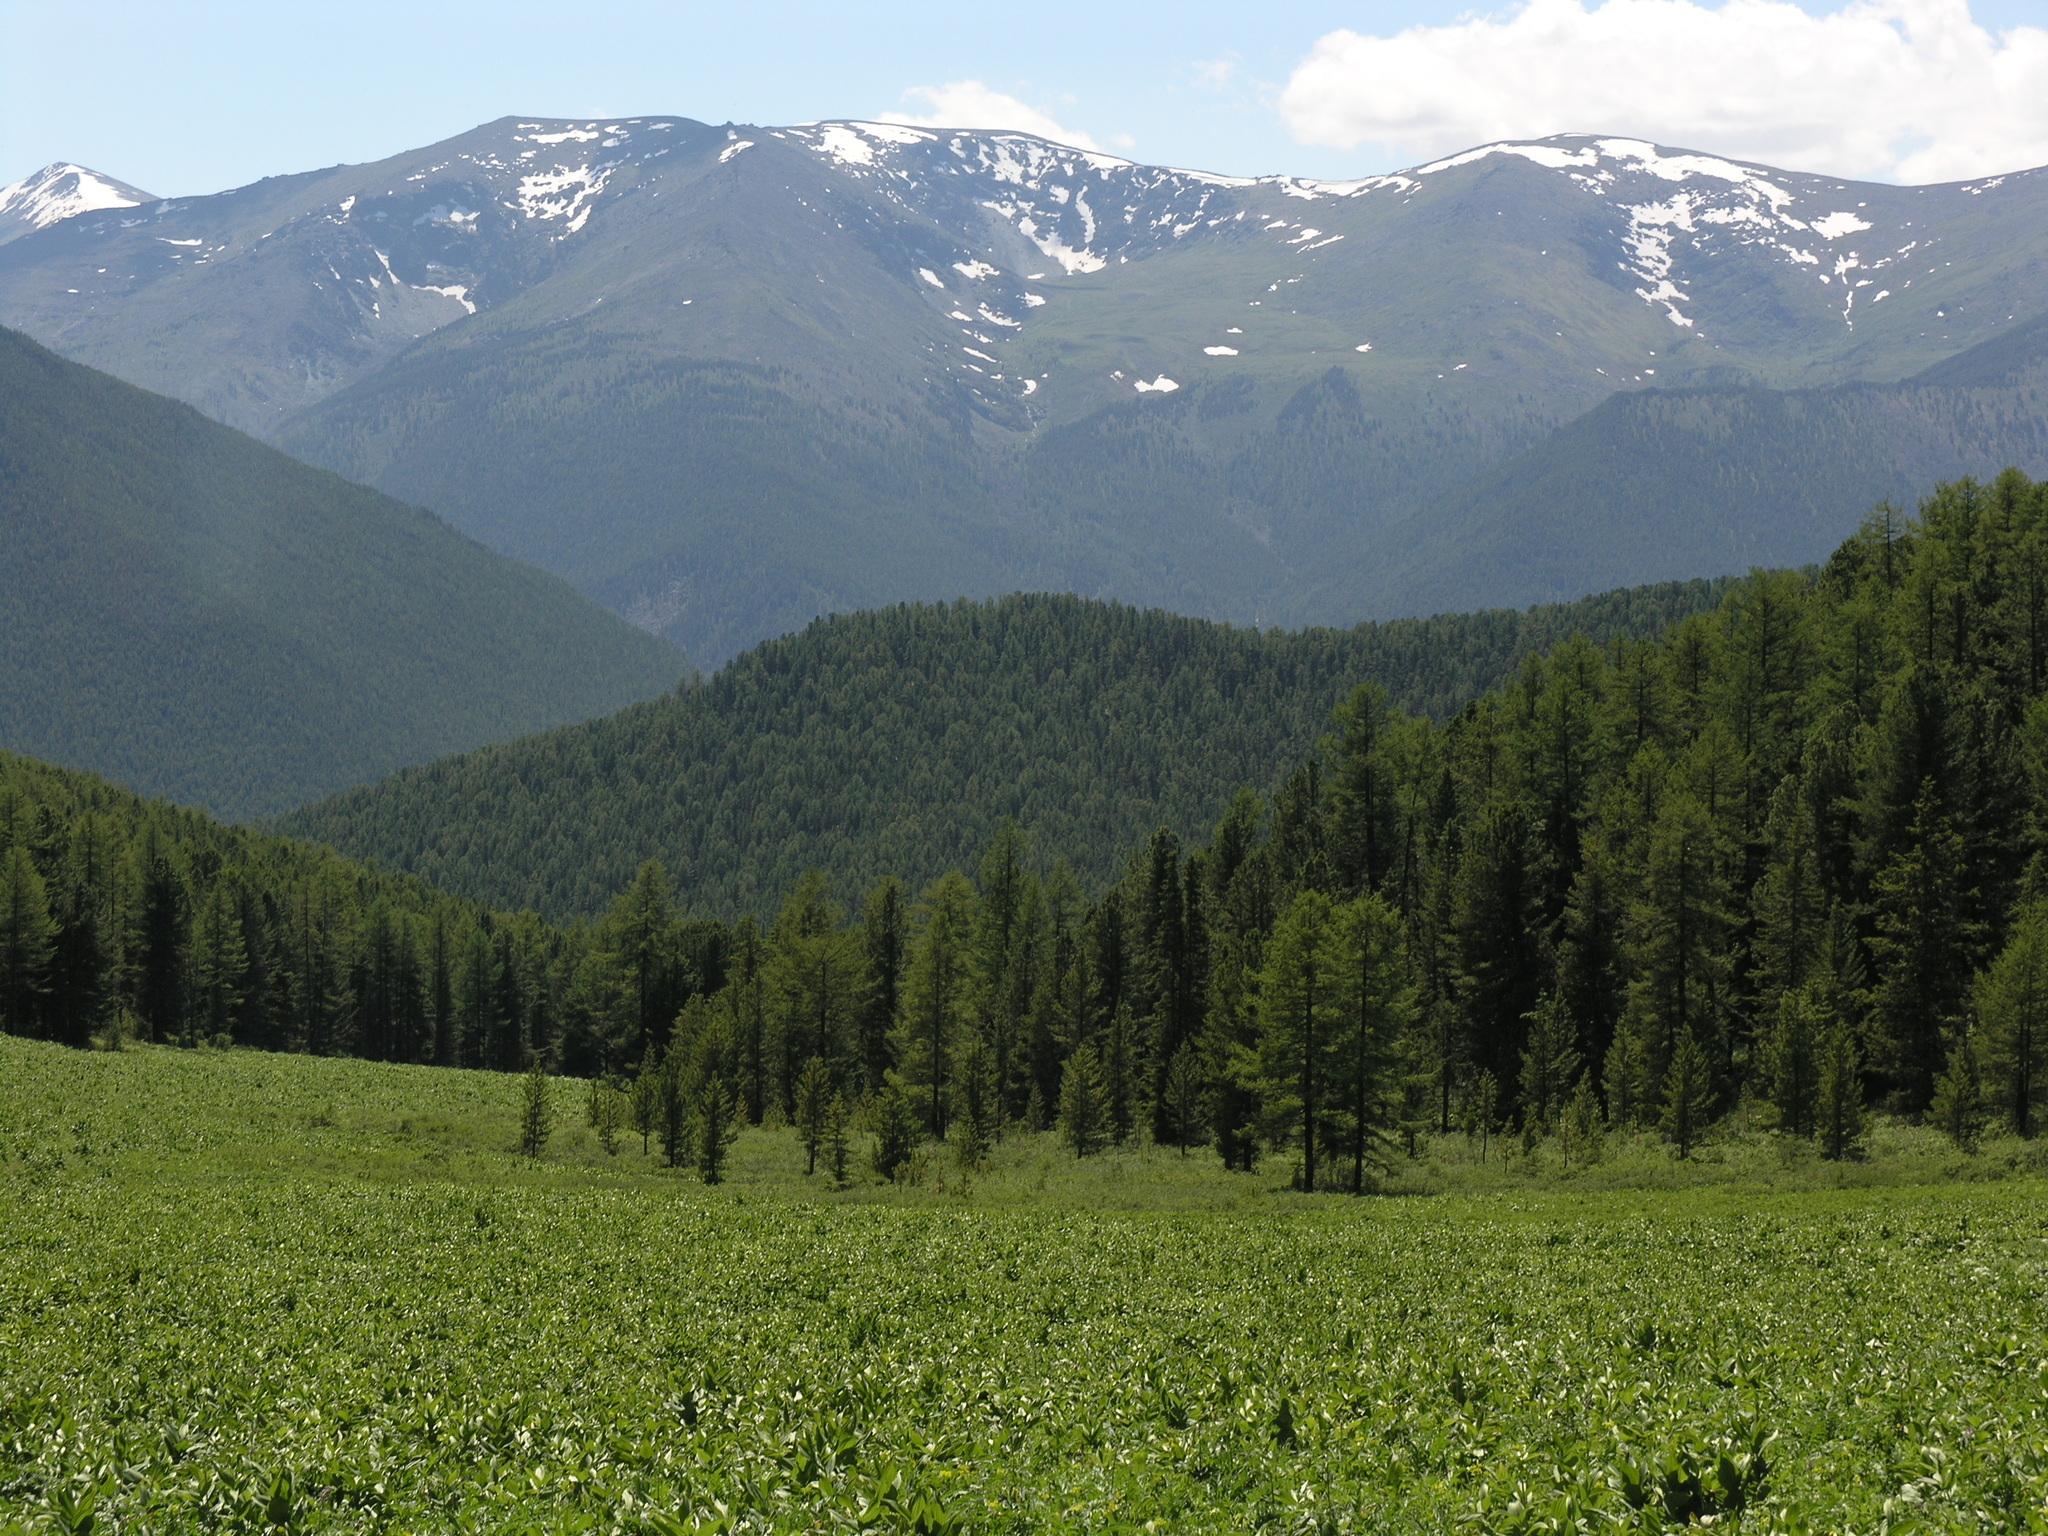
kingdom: Plantae
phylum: Tracheophyta
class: Liliopsida
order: Liliales
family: Melanthiaceae
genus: Veratrum
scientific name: Veratrum lobelianum
